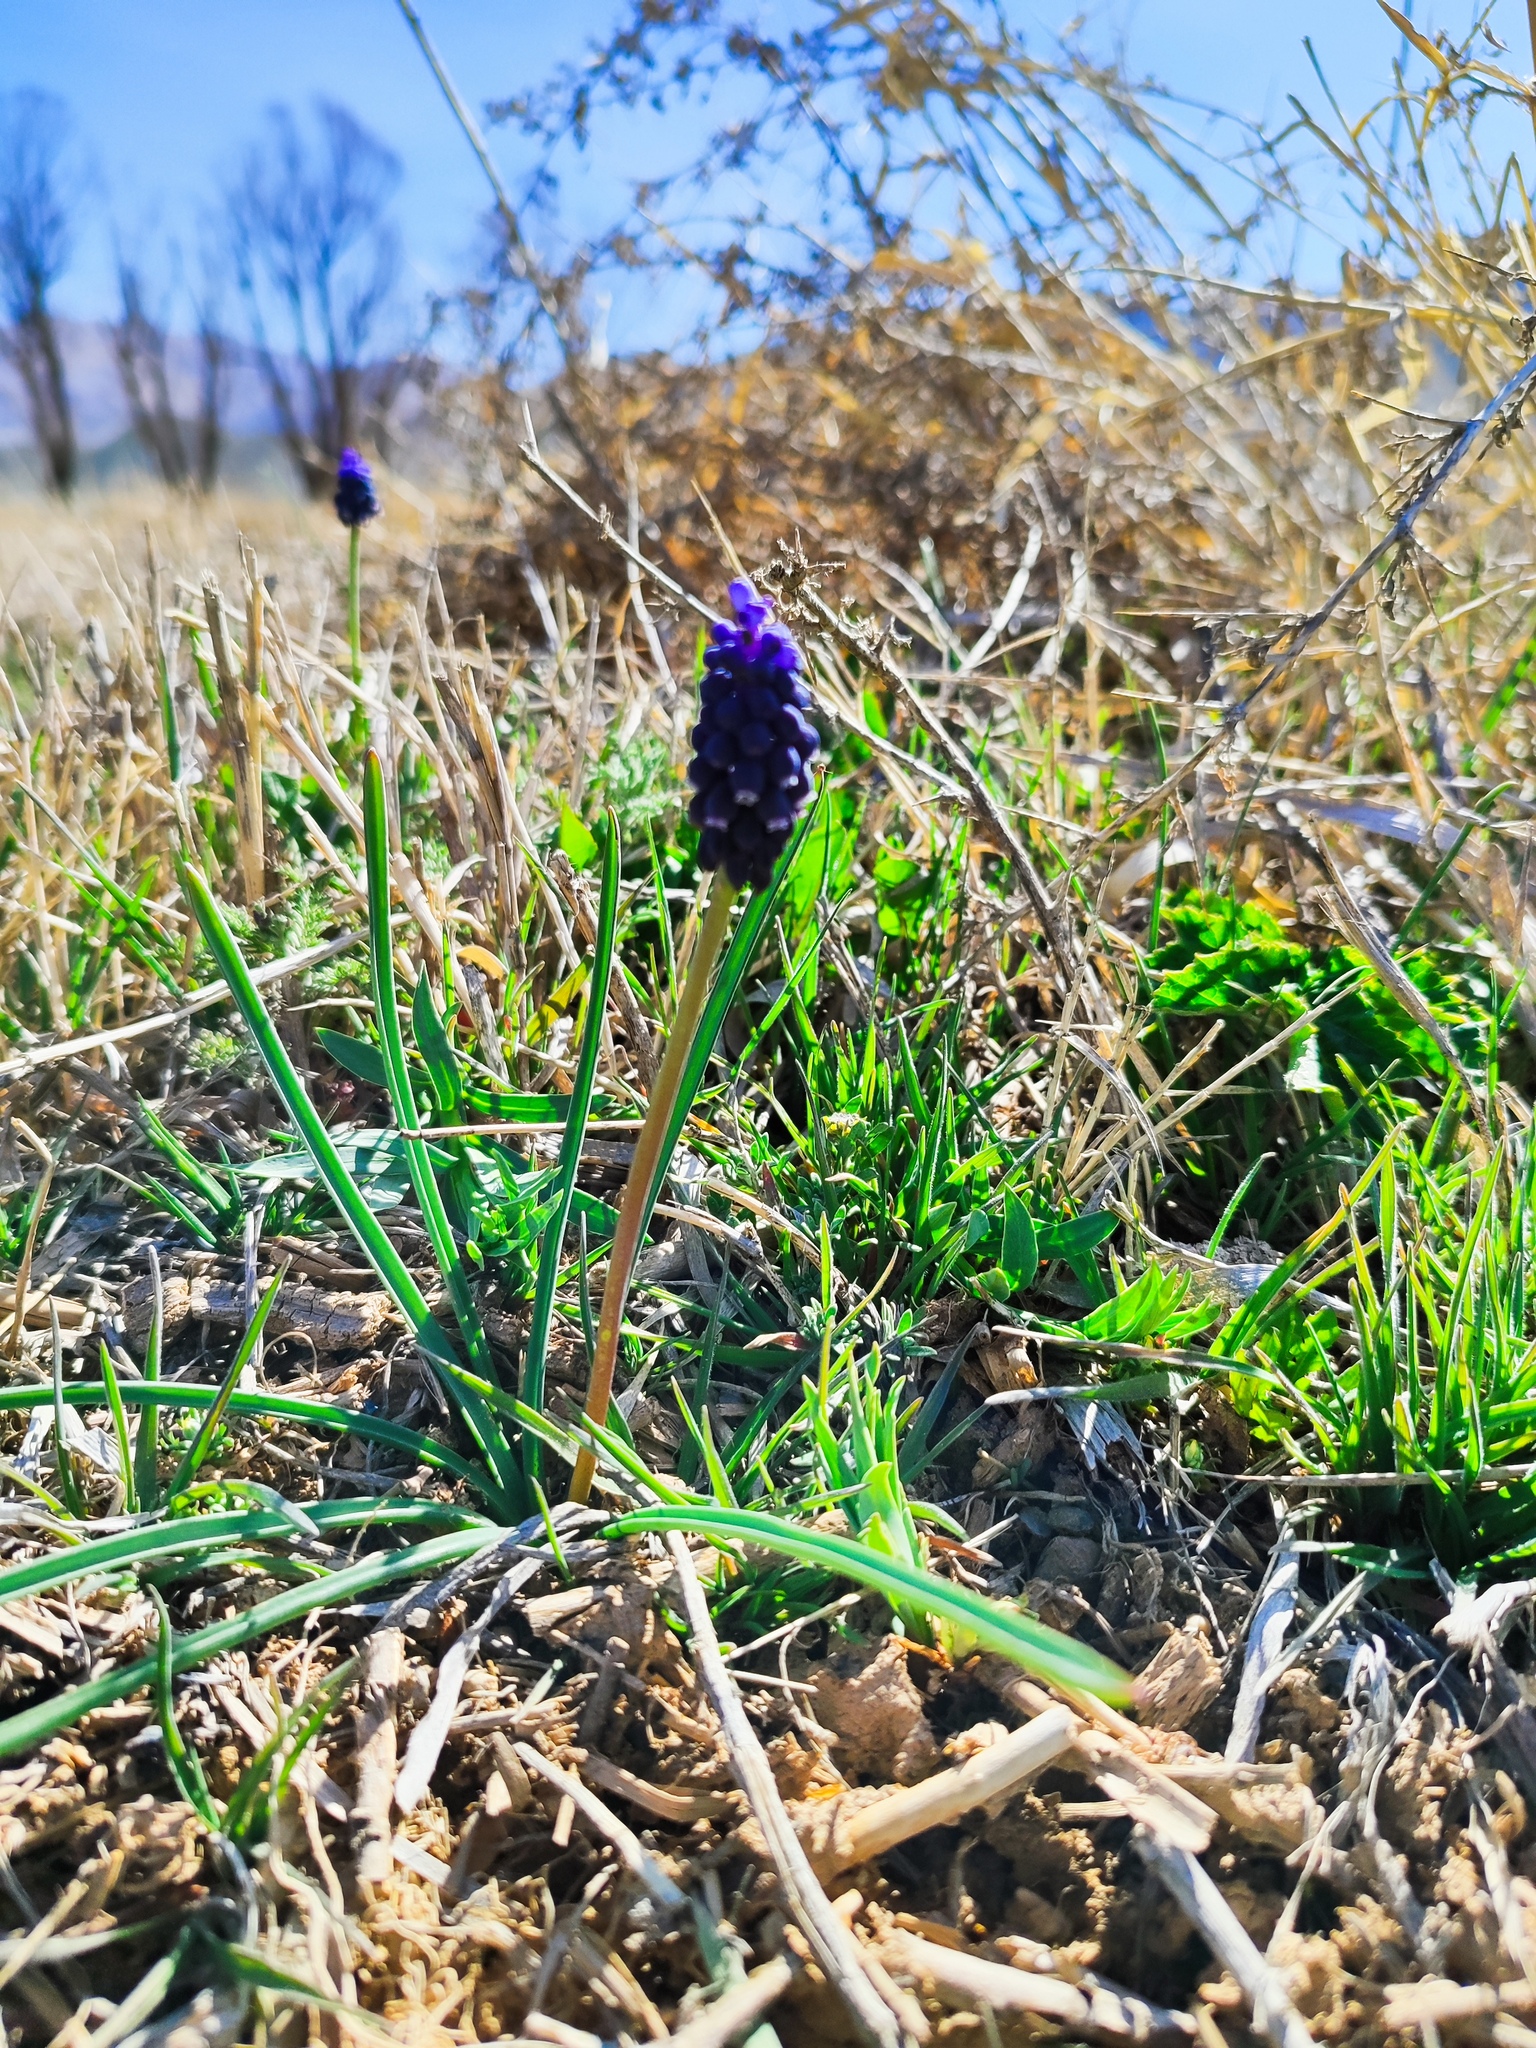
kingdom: Plantae
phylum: Tracheophyta
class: Liliopsida
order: Asparagales
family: Asparagaceae
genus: Muscari
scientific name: Muscari neglectum
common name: Grape-hyacinth
